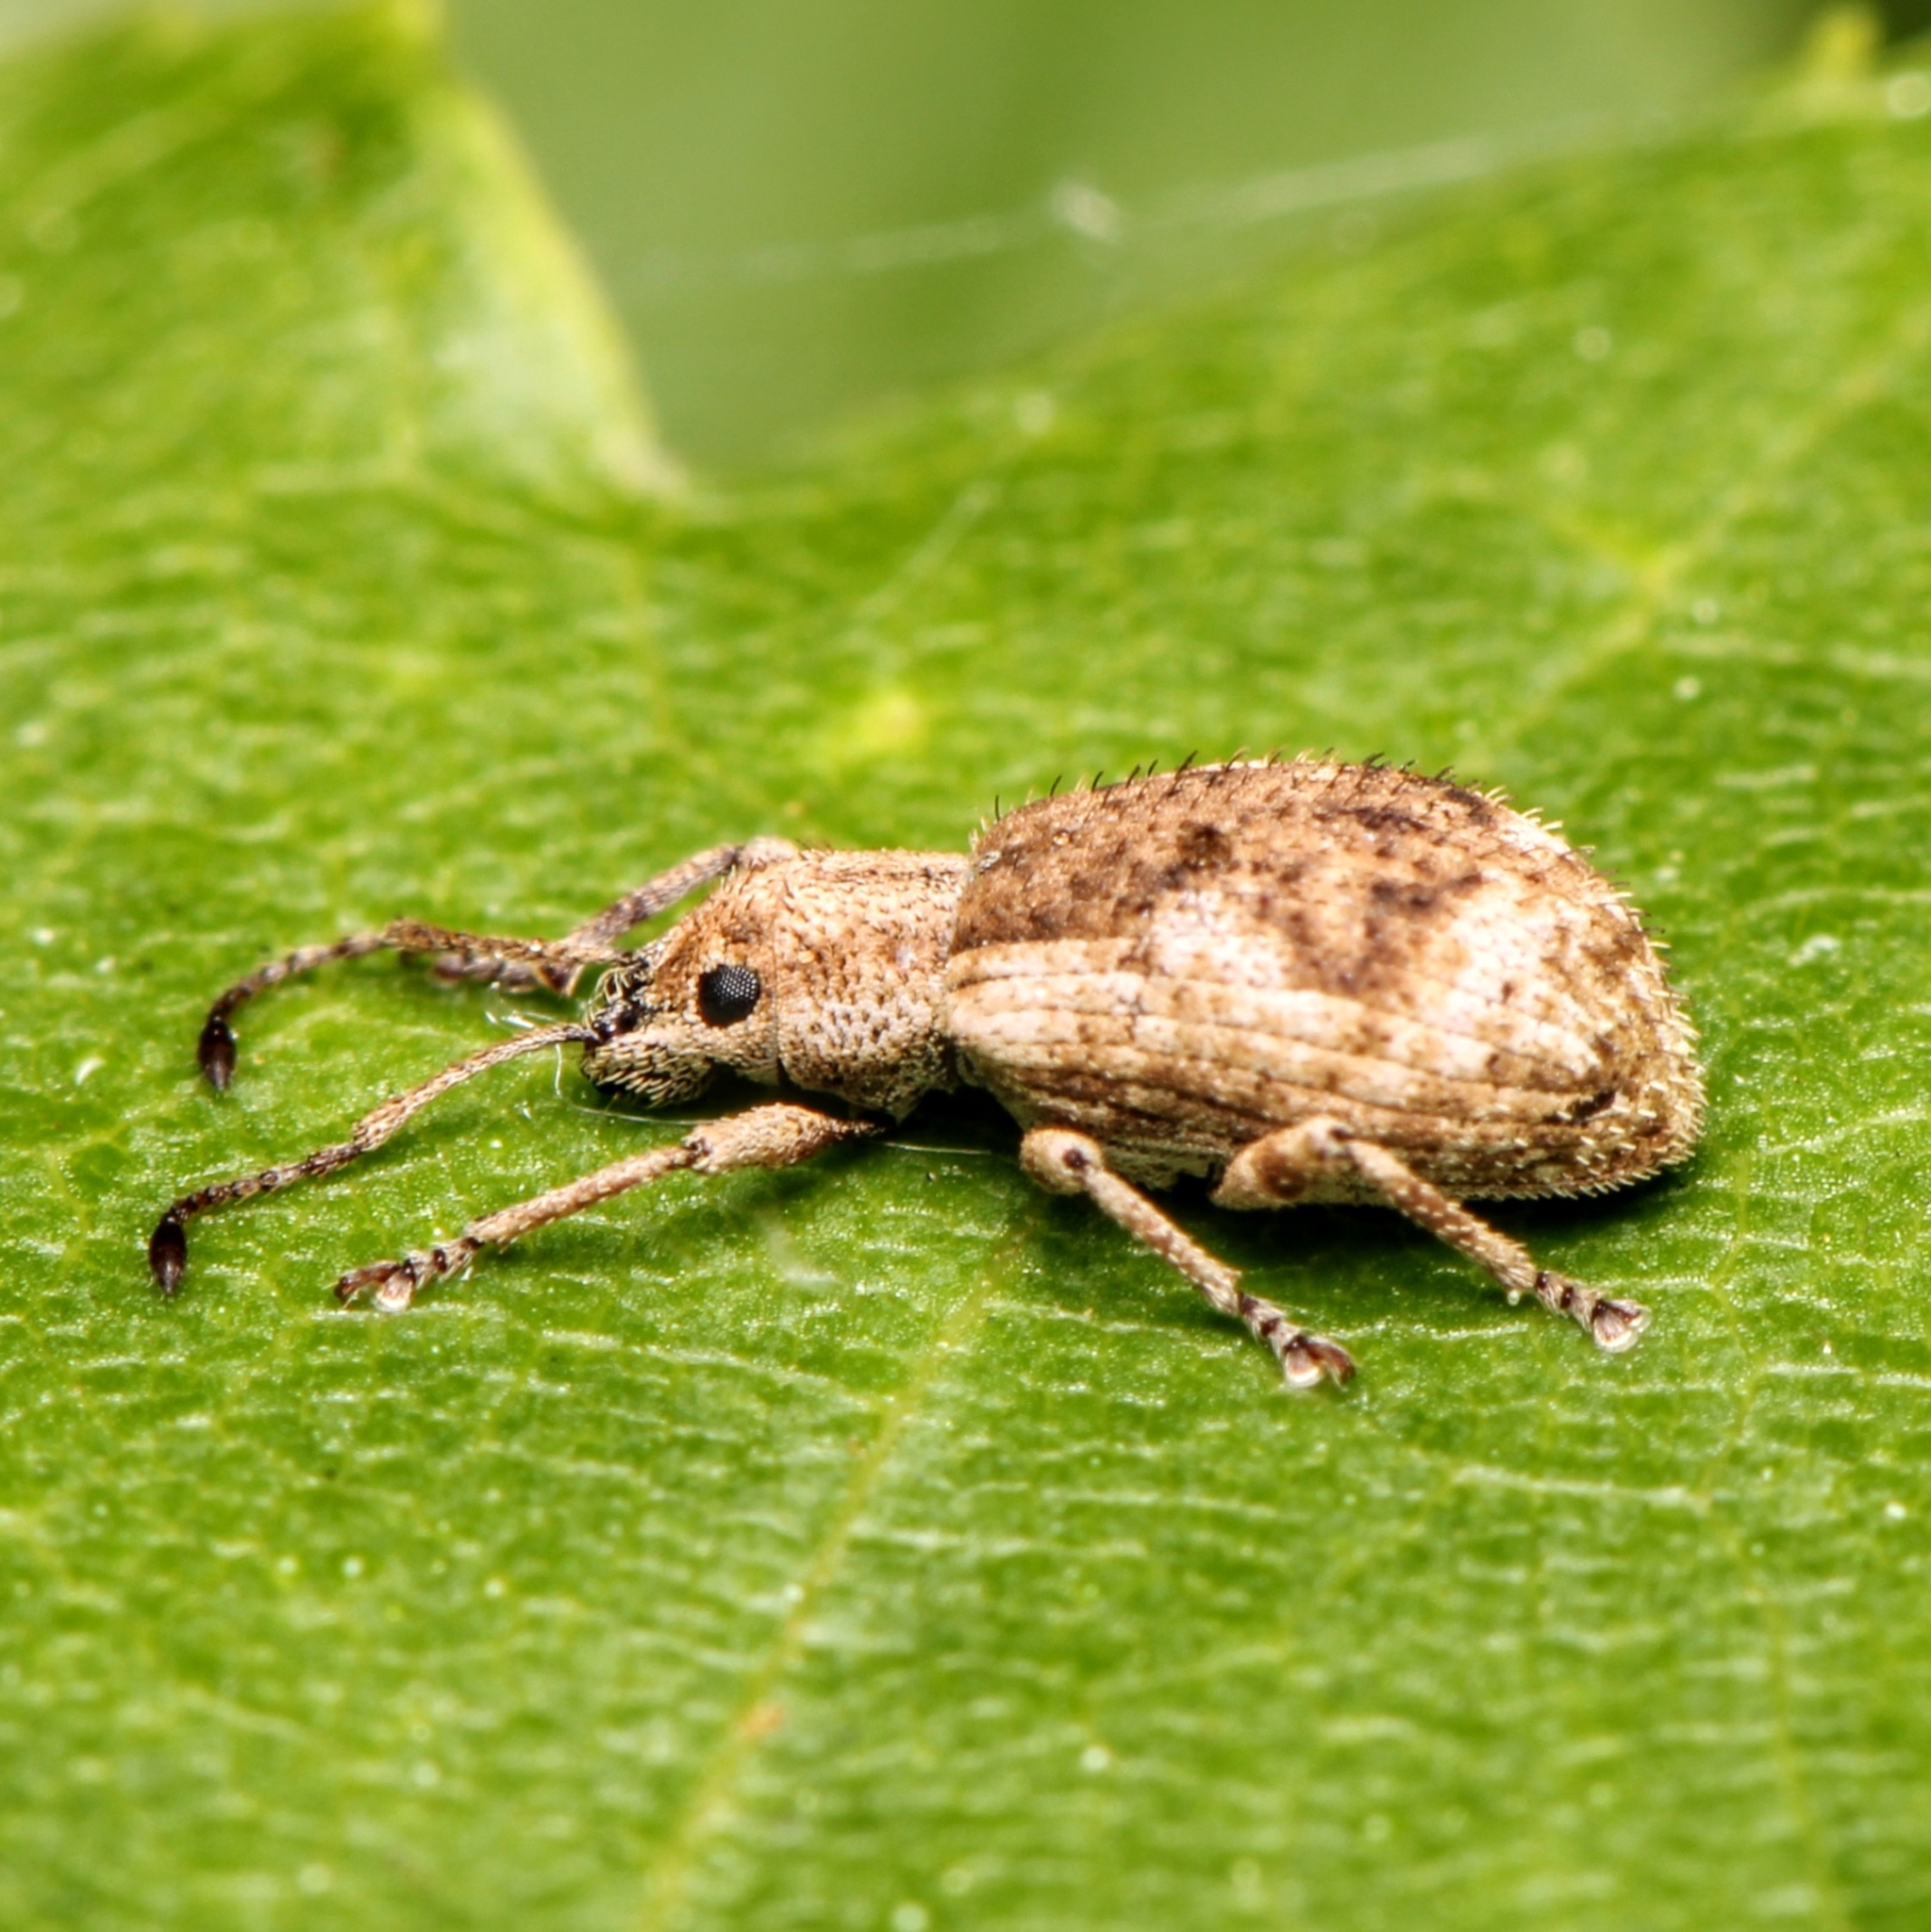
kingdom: Animalia
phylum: Arthropoda
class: Insecta
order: Coleoptera
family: Curculionidae
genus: Pseudoedophrys
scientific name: Pseudoedophrys hilleri
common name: Weevil
